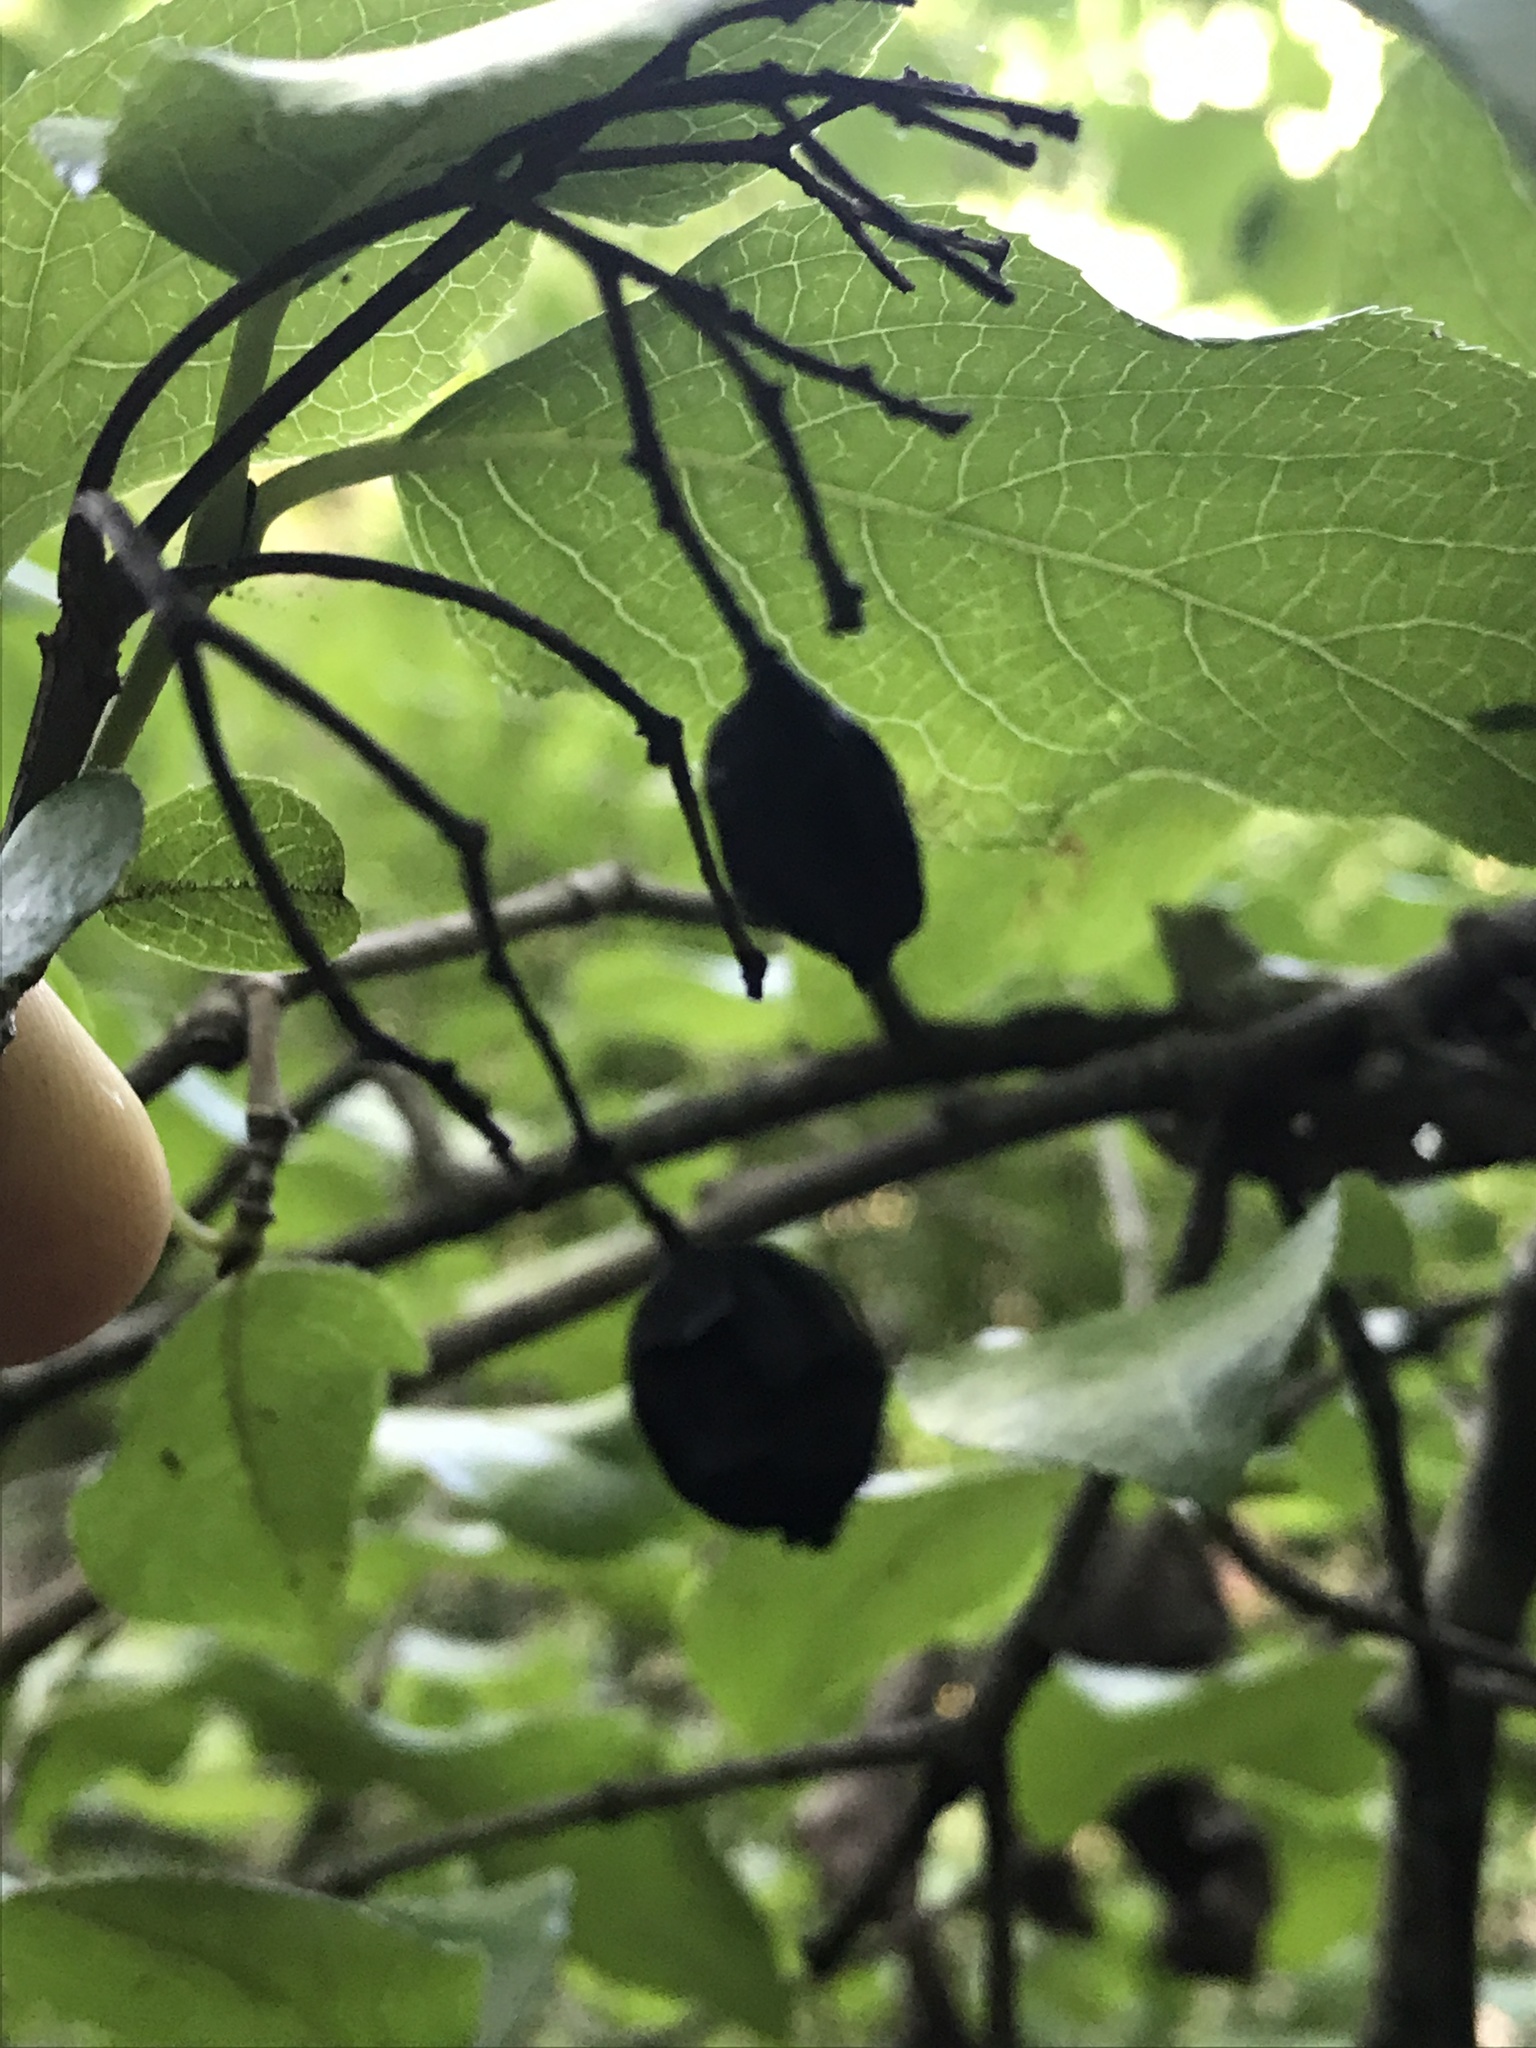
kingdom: Plantae
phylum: Tracheophyta
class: Magnoliopsida
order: Dipsacales
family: Viburnaceae
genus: Viburnum
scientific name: Viburnum rufidulum
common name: Blue haw
